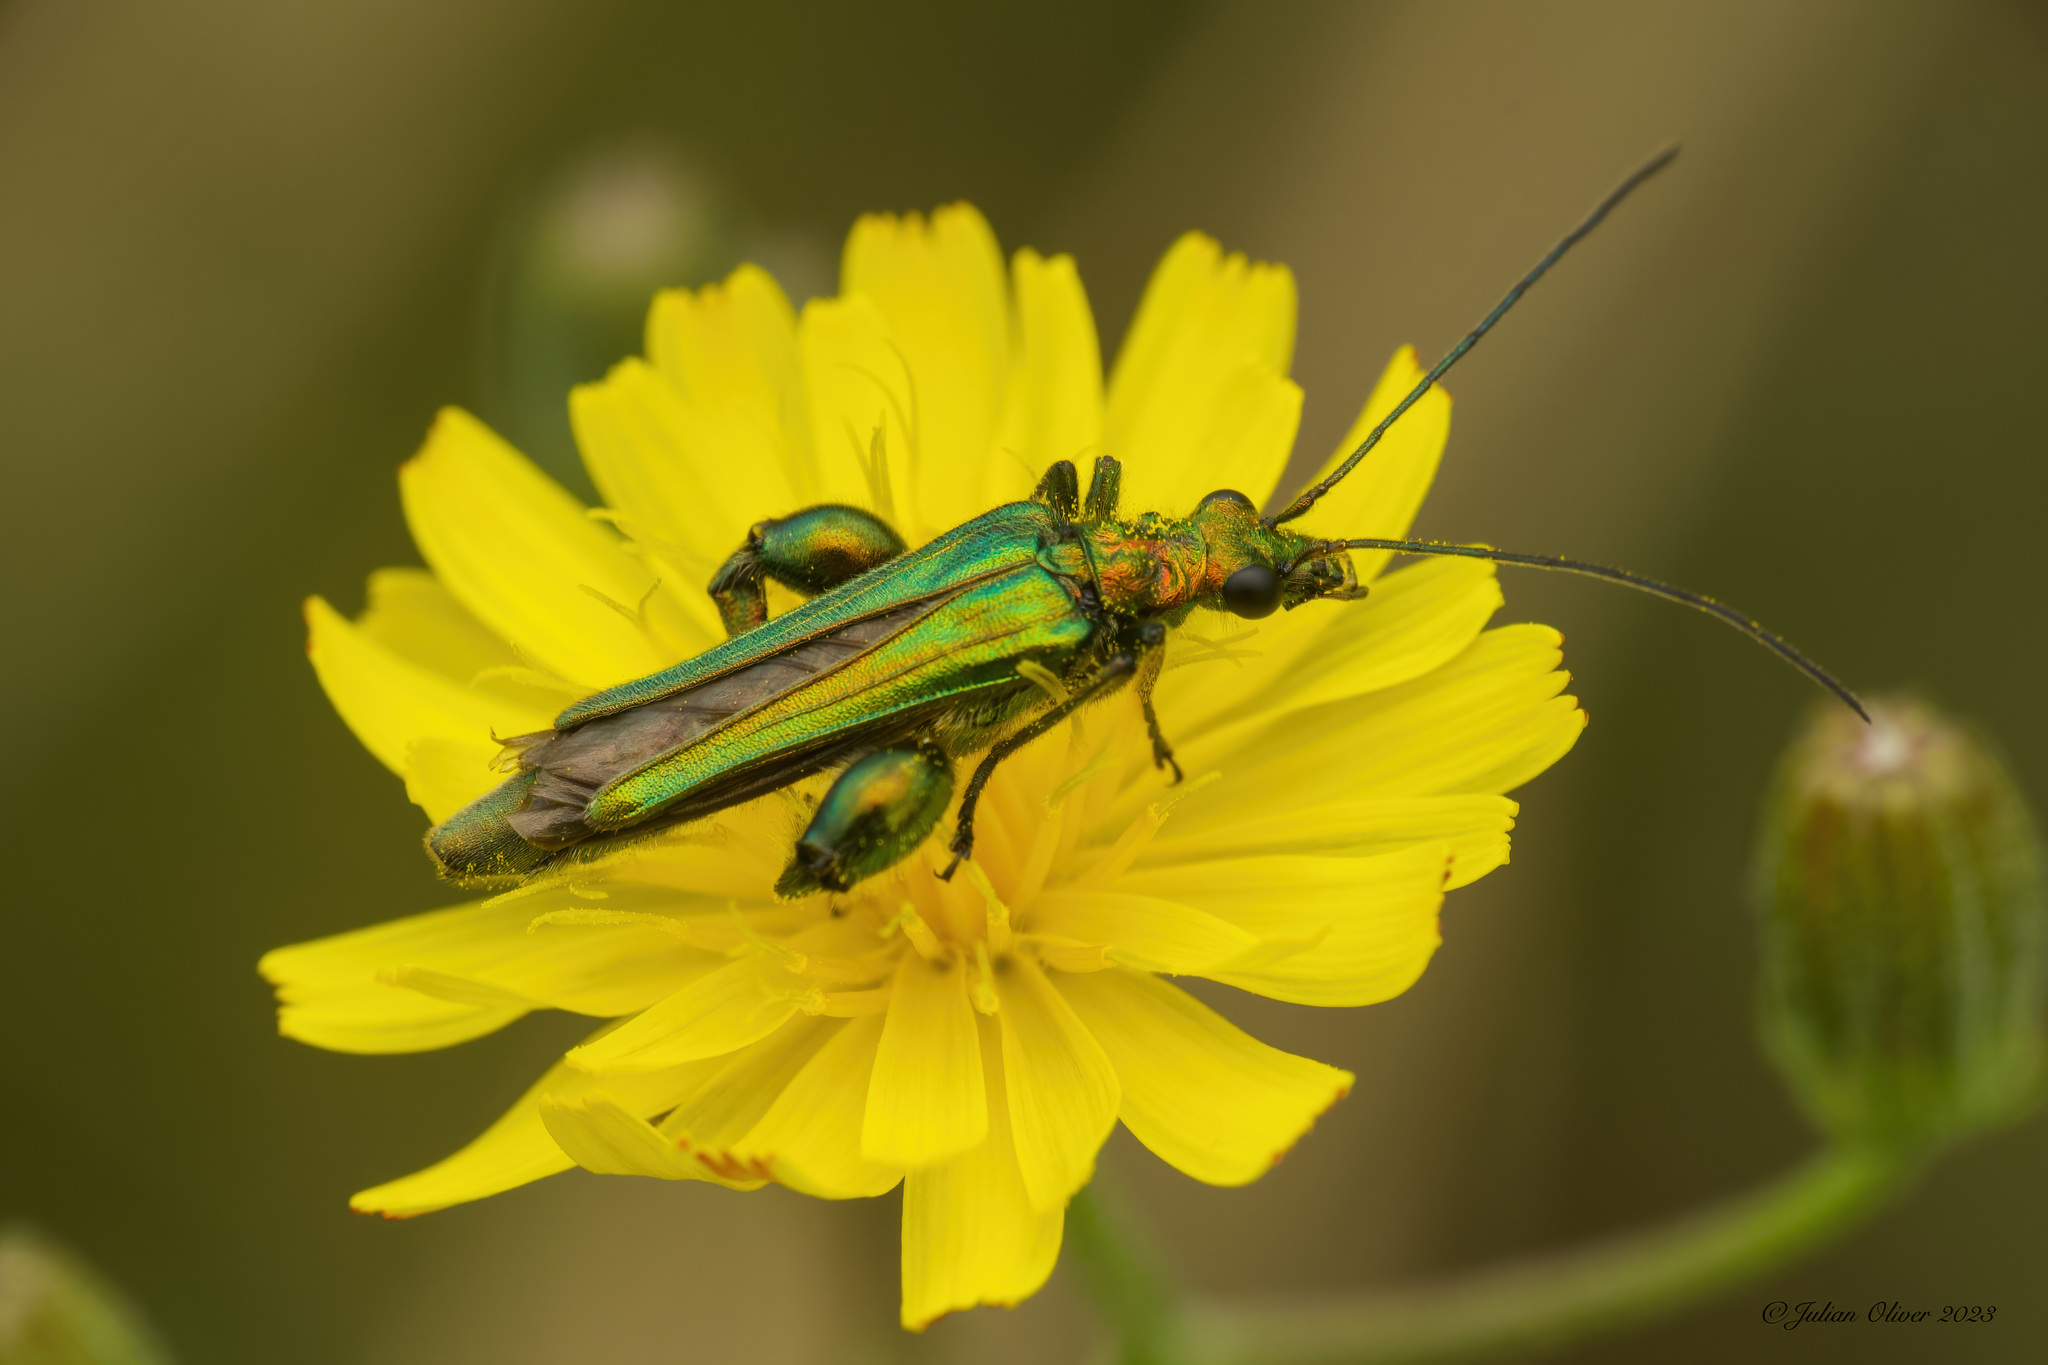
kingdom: Animalia
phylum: Arthropoda
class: Insecta
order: Coleoptera
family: Oedemeridae
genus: Oedemera
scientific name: Oedemera nobilis
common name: Swollen-thighed beetle
